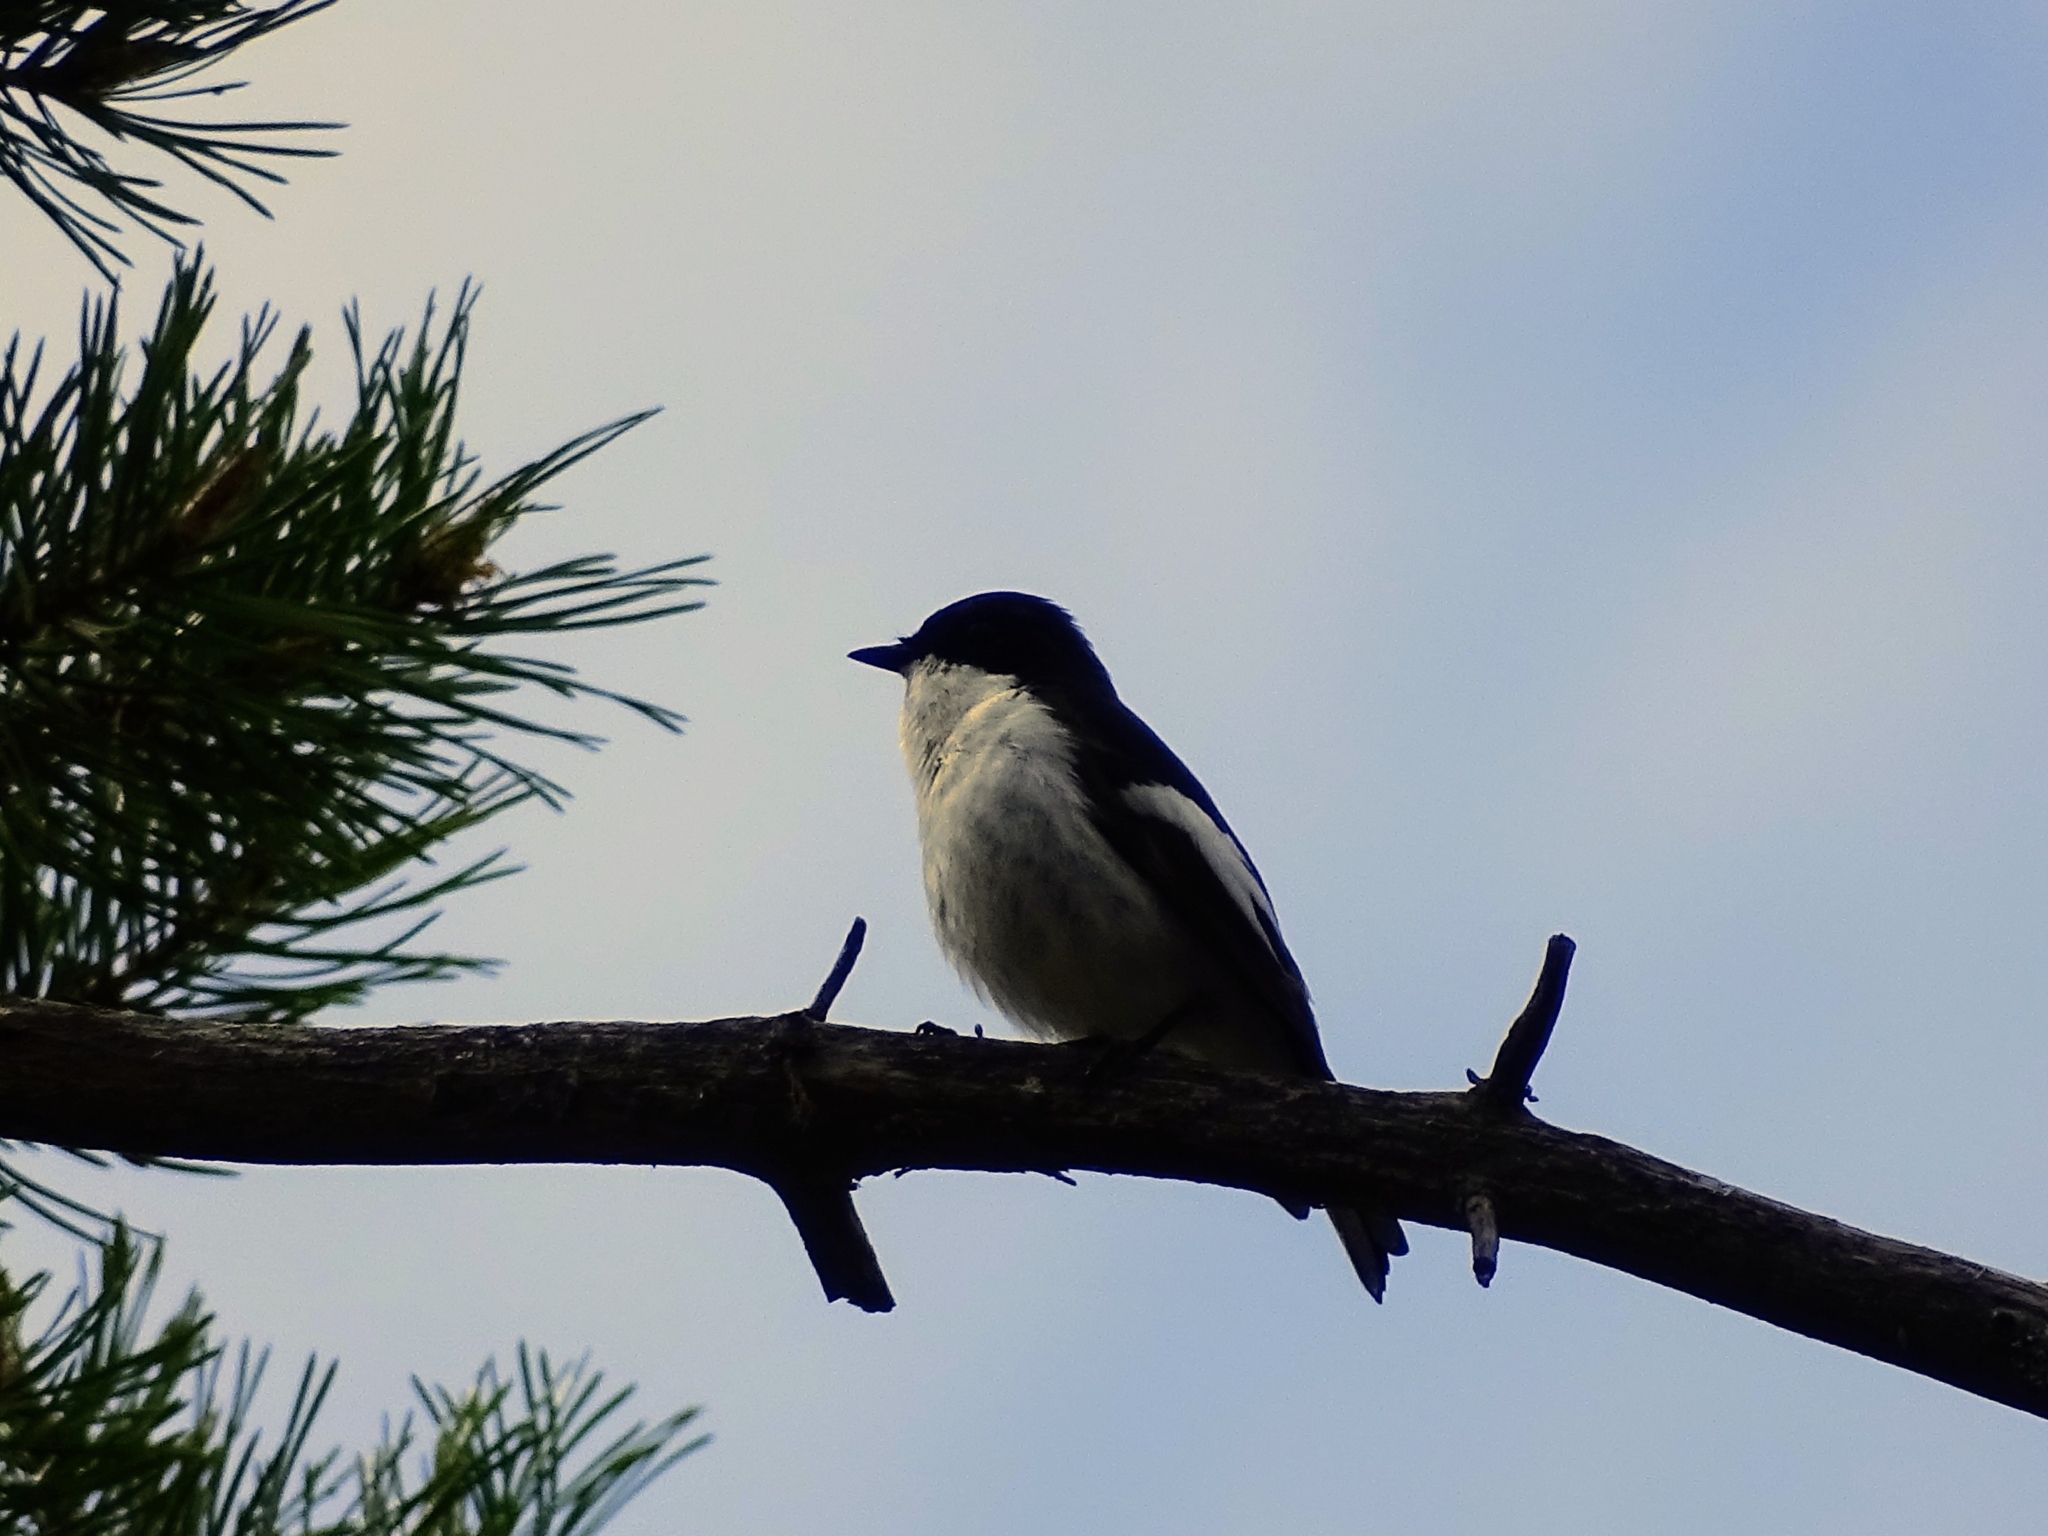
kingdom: Animalia
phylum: Chordata
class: Aves
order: Passeriformes
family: Muscicapidae
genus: Ficedula
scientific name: Ficedula hypoleuca
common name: European pied flycatcher
